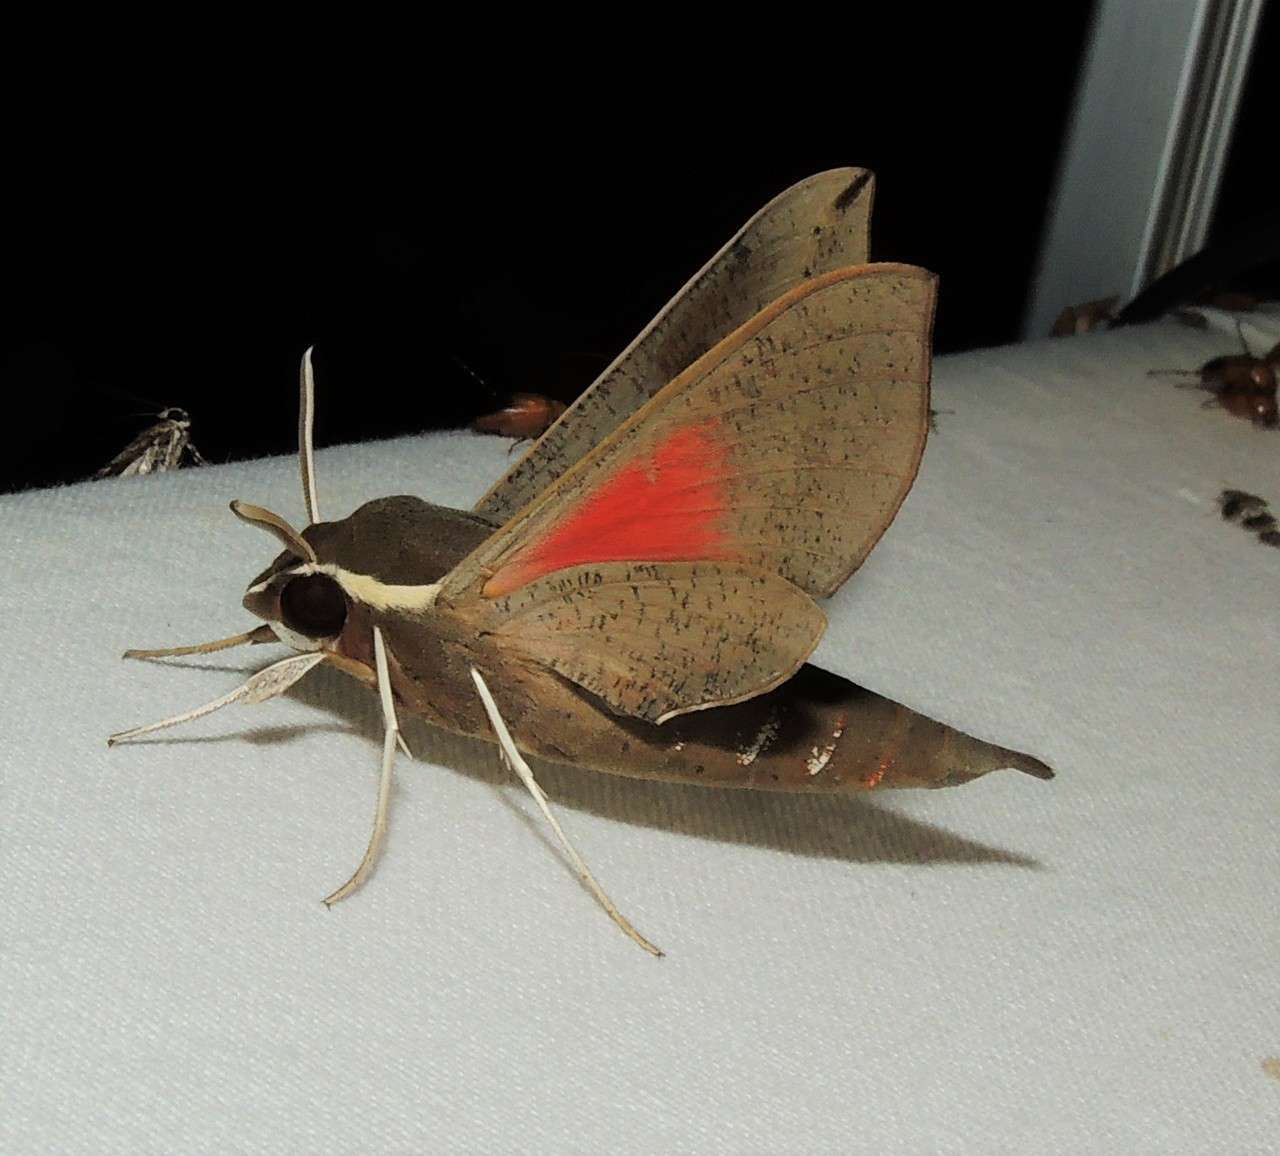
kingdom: Animalia
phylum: Arthropoda
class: Insecta
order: Lepidoptera
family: Sphingidae
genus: Hippotion
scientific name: Hippotion scrofa
